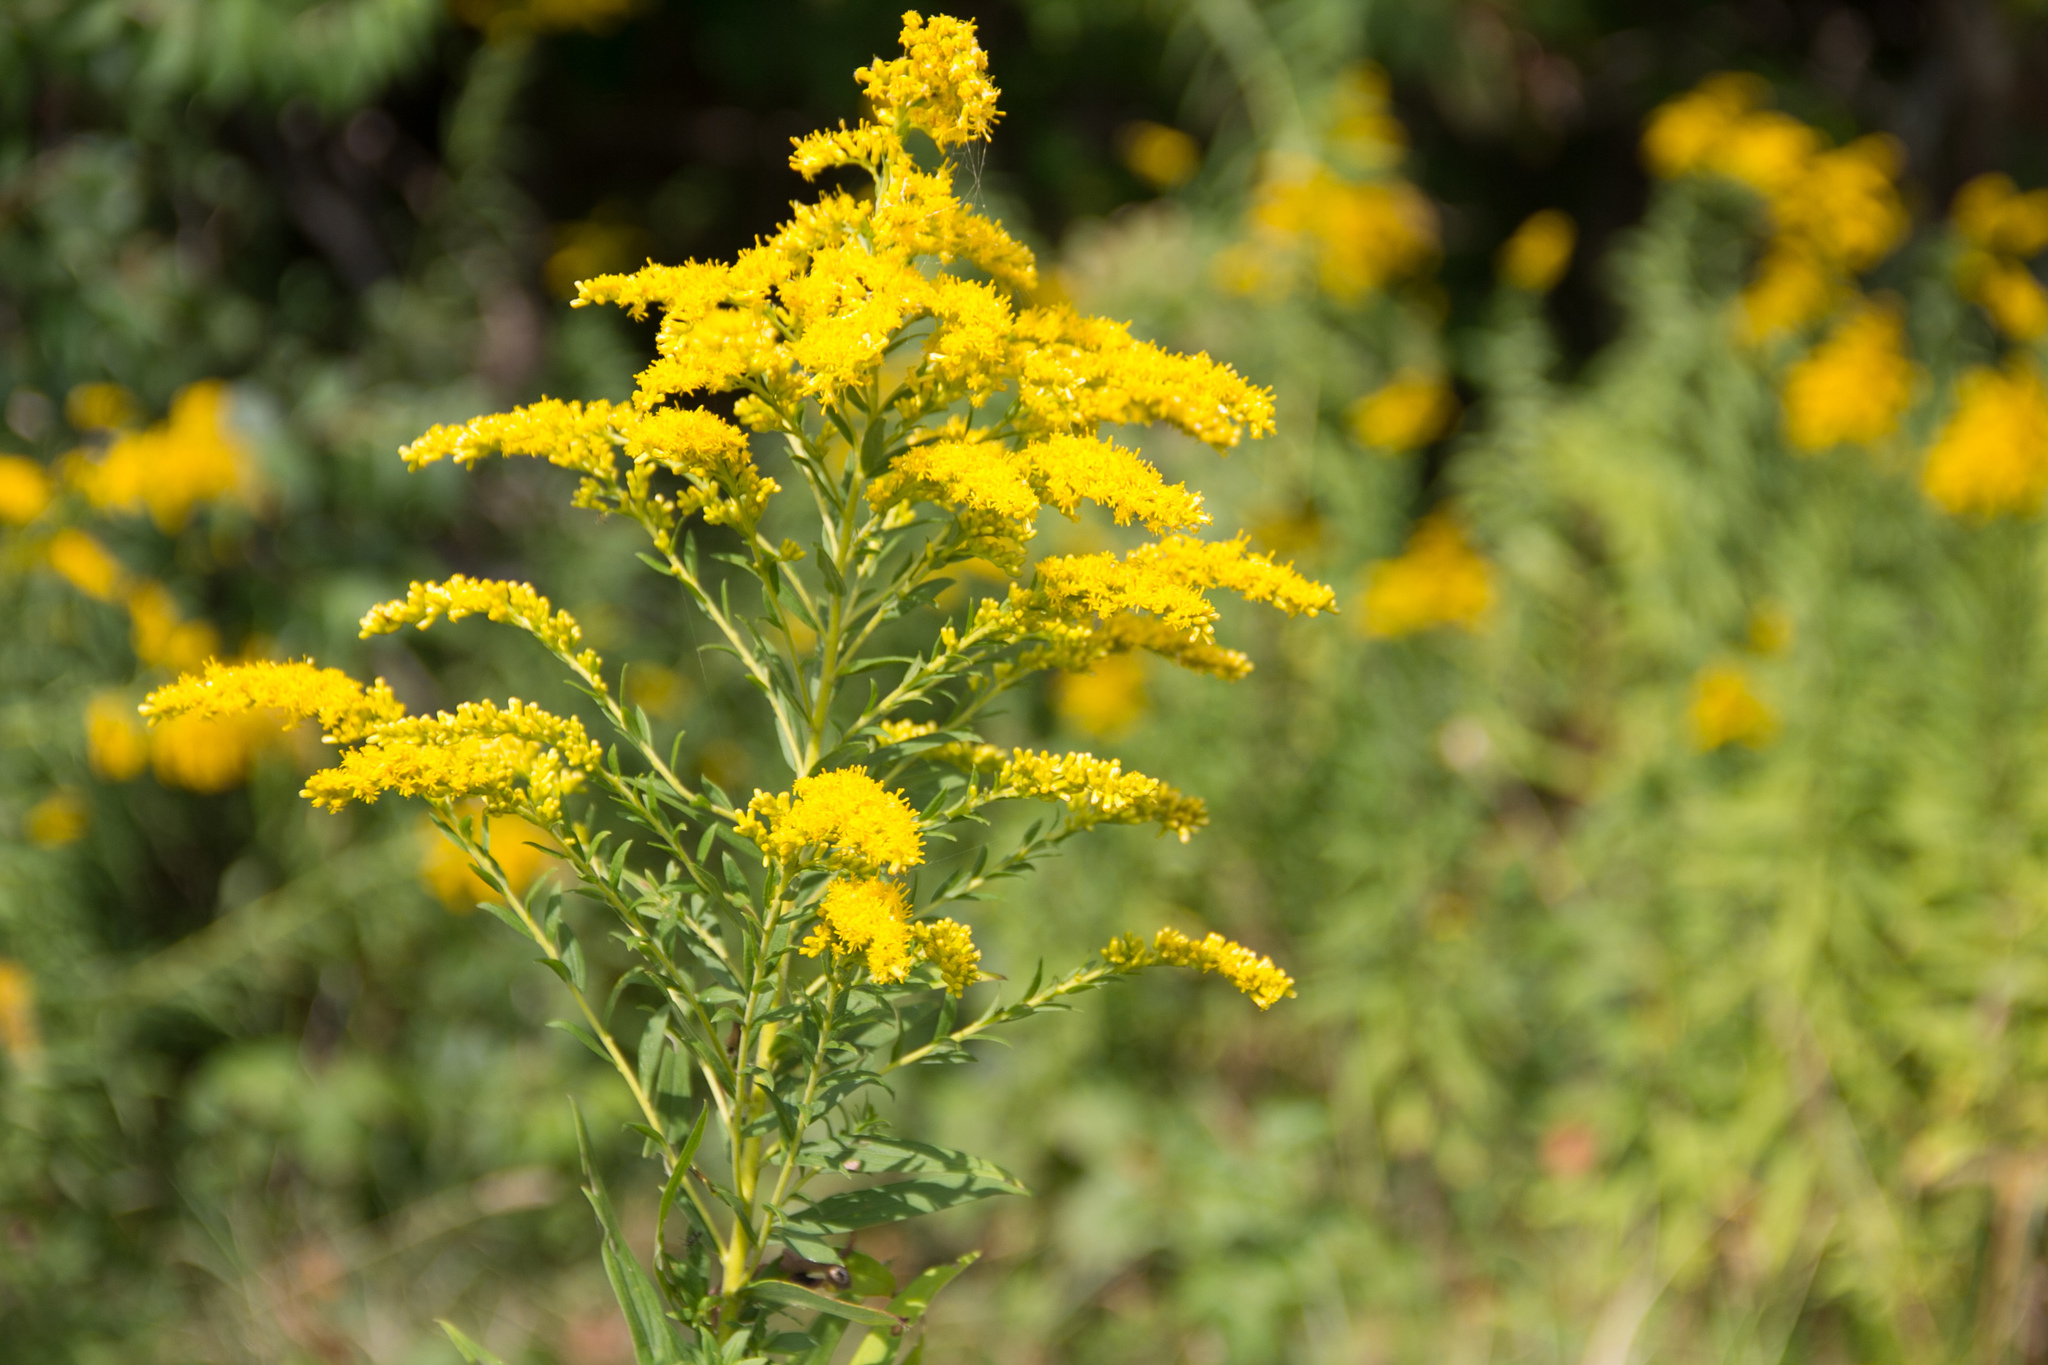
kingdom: Plantae
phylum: Tracheophyta
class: Magnoliopsida
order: Asterales
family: Asteraceae
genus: Solidago
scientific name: Solidago canadensis
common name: Canada goldenrod
